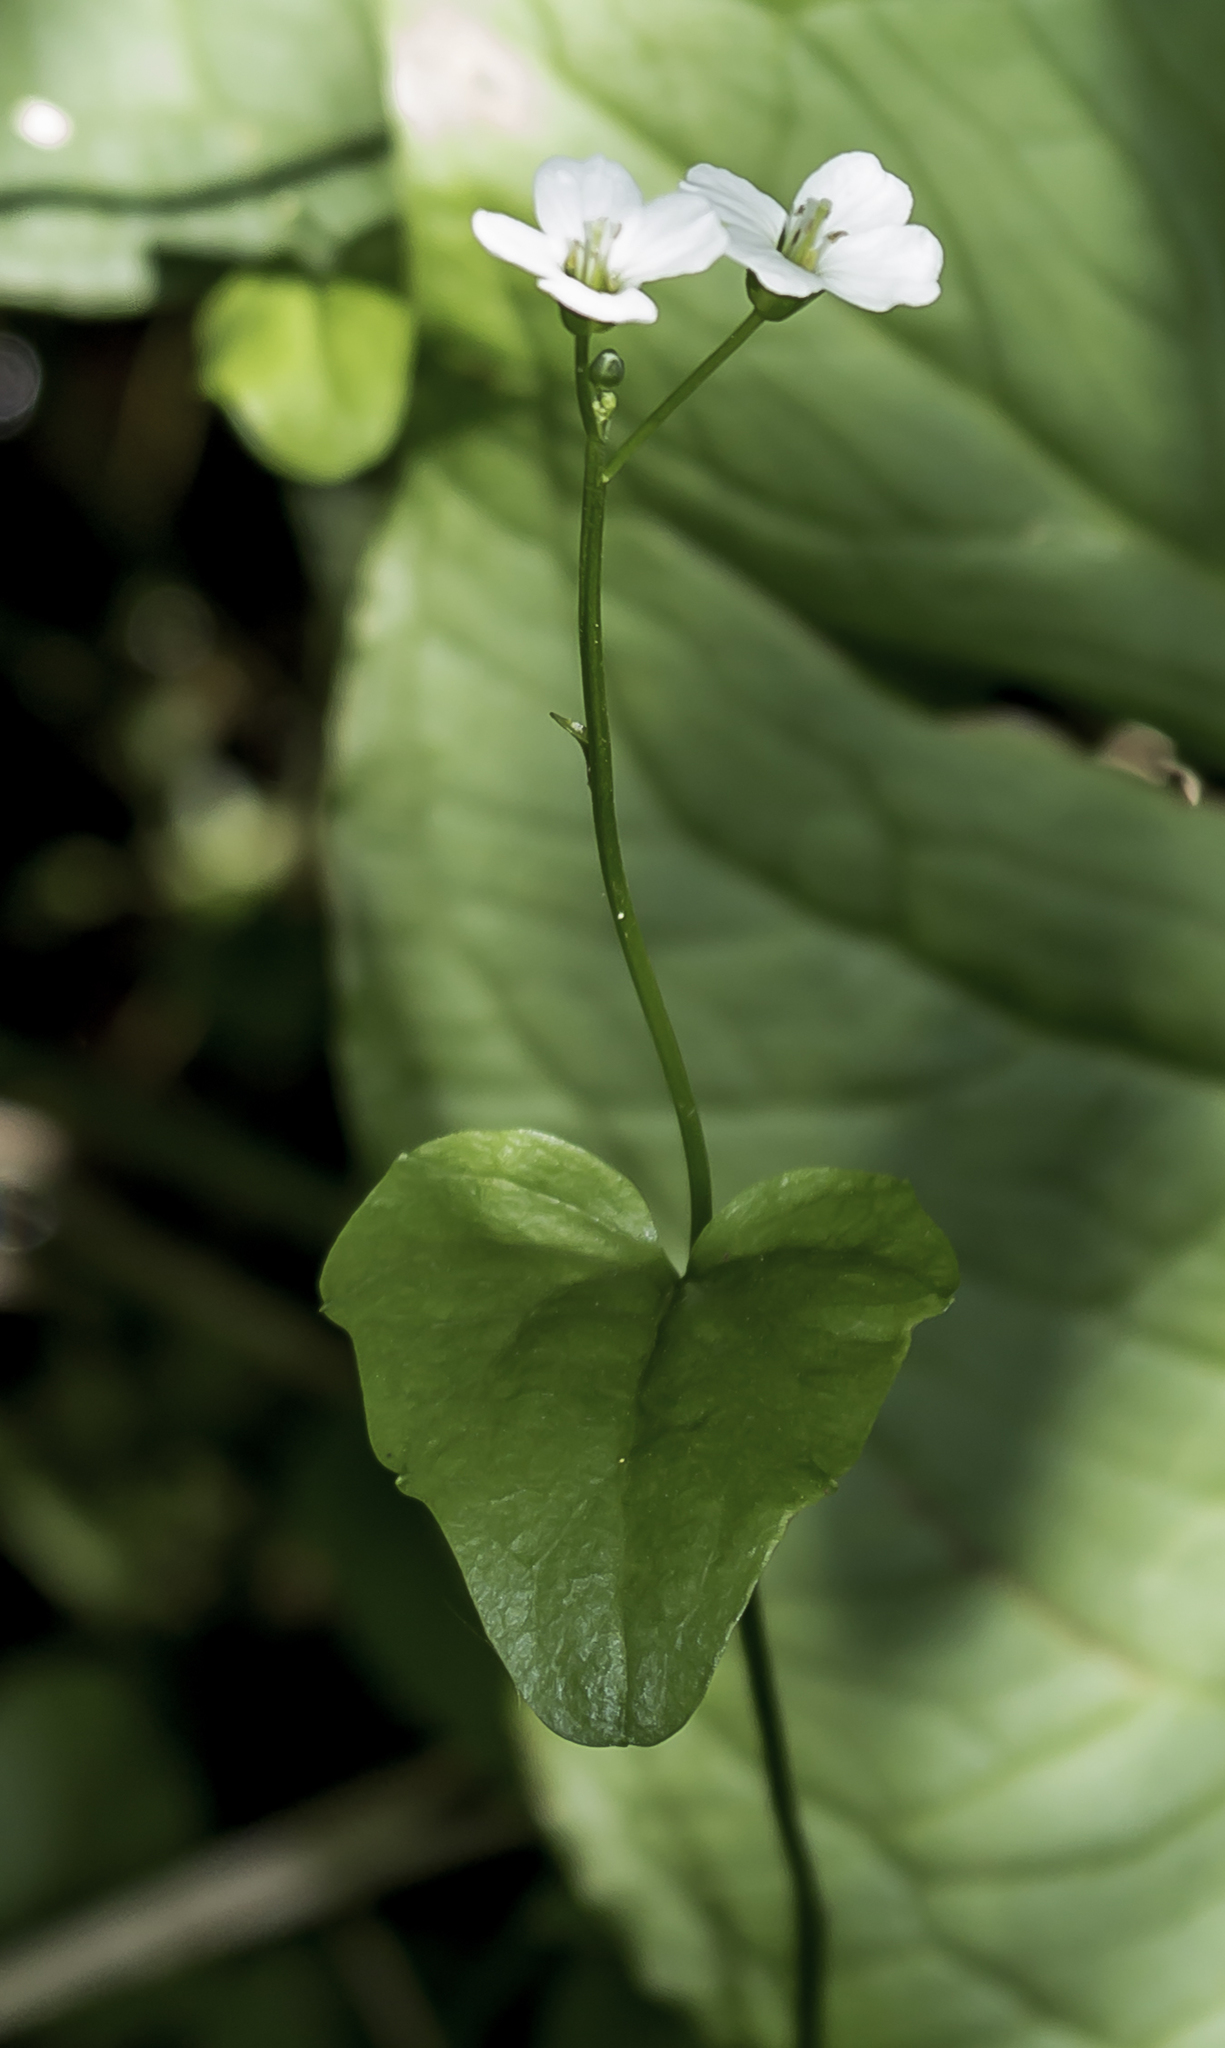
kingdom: Plantae
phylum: Tracheophyta
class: Magnoliopsida
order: Brassicales
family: Brassicaceae
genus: Cardamine
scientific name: Cardamine bulbosa
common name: Spring cress
